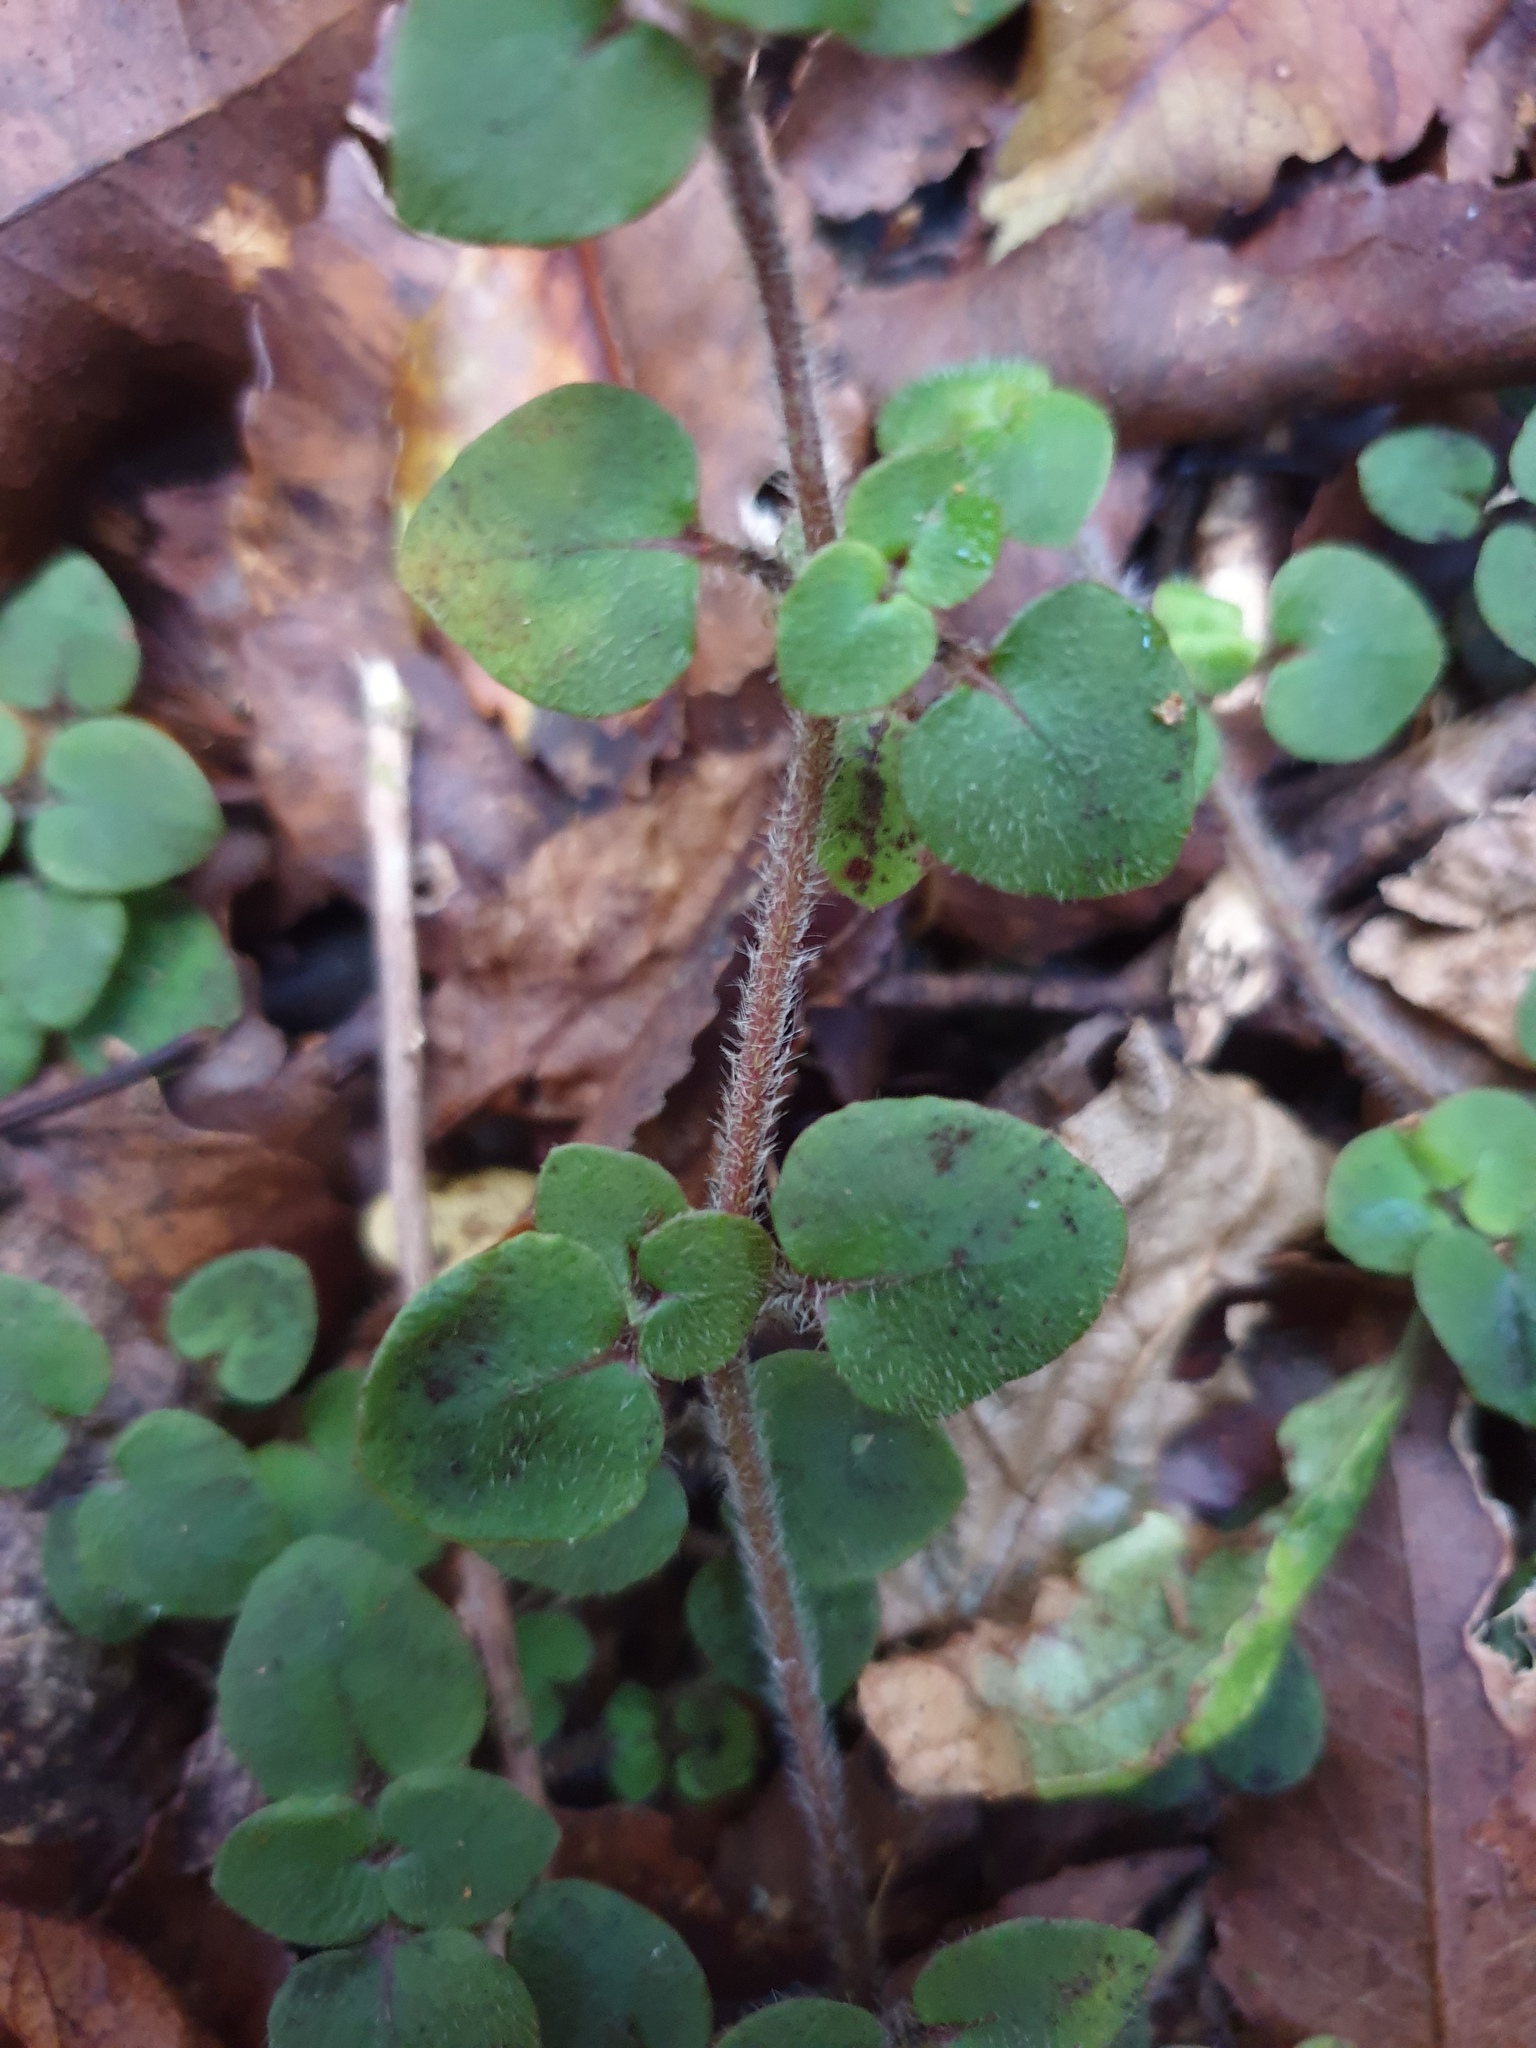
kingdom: Plantae
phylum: Tracheophyta
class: Magnoliopsida
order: Gentianales
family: Rubiaceae
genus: Nertera
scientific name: Nertera villosa
